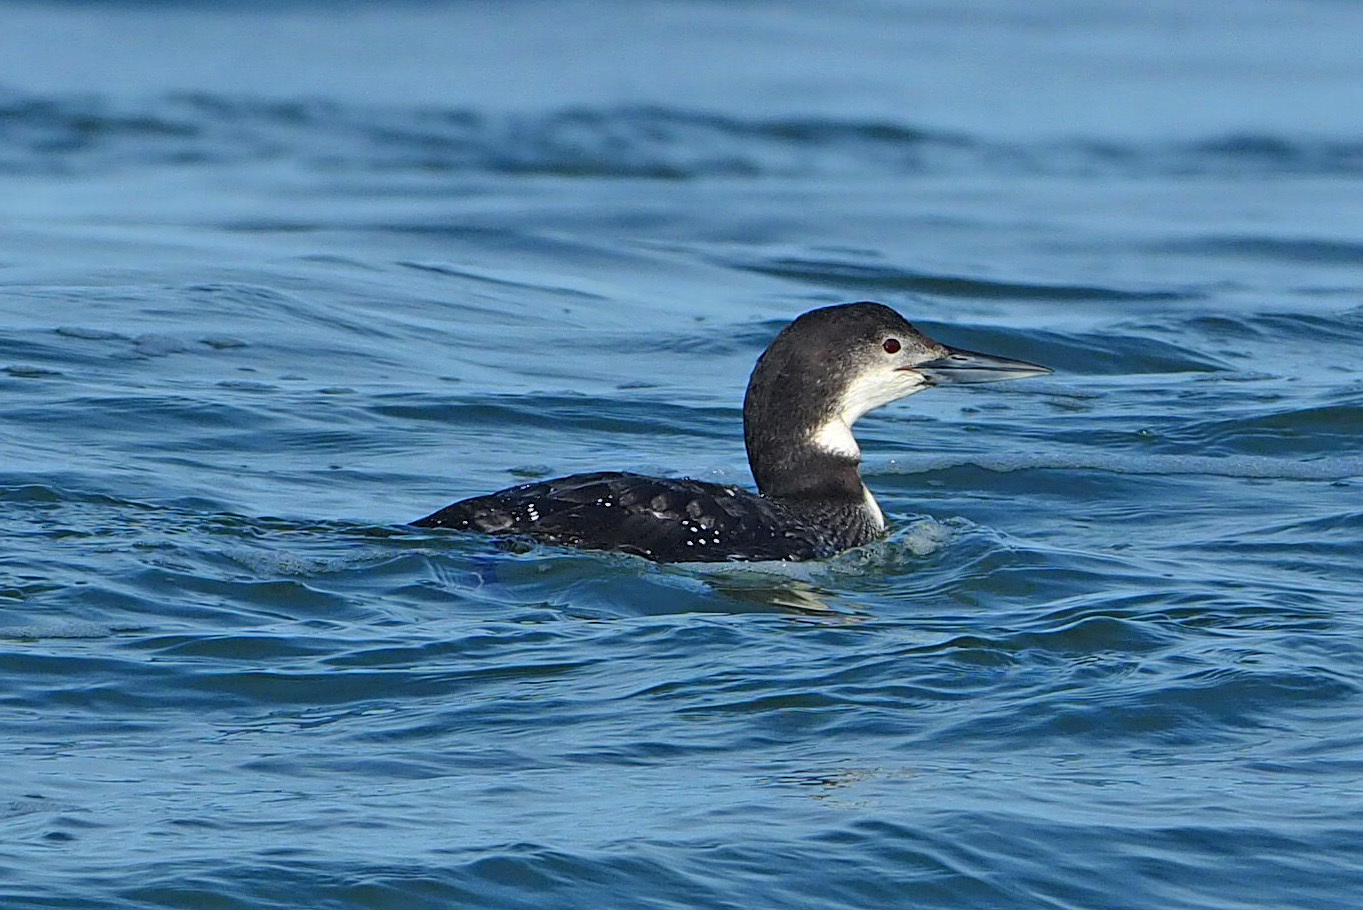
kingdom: Animalia
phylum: Chordata
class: Aves
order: Gaviiformes
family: Gaviidae
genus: Gavia
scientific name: Gavia immer
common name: Common loon
